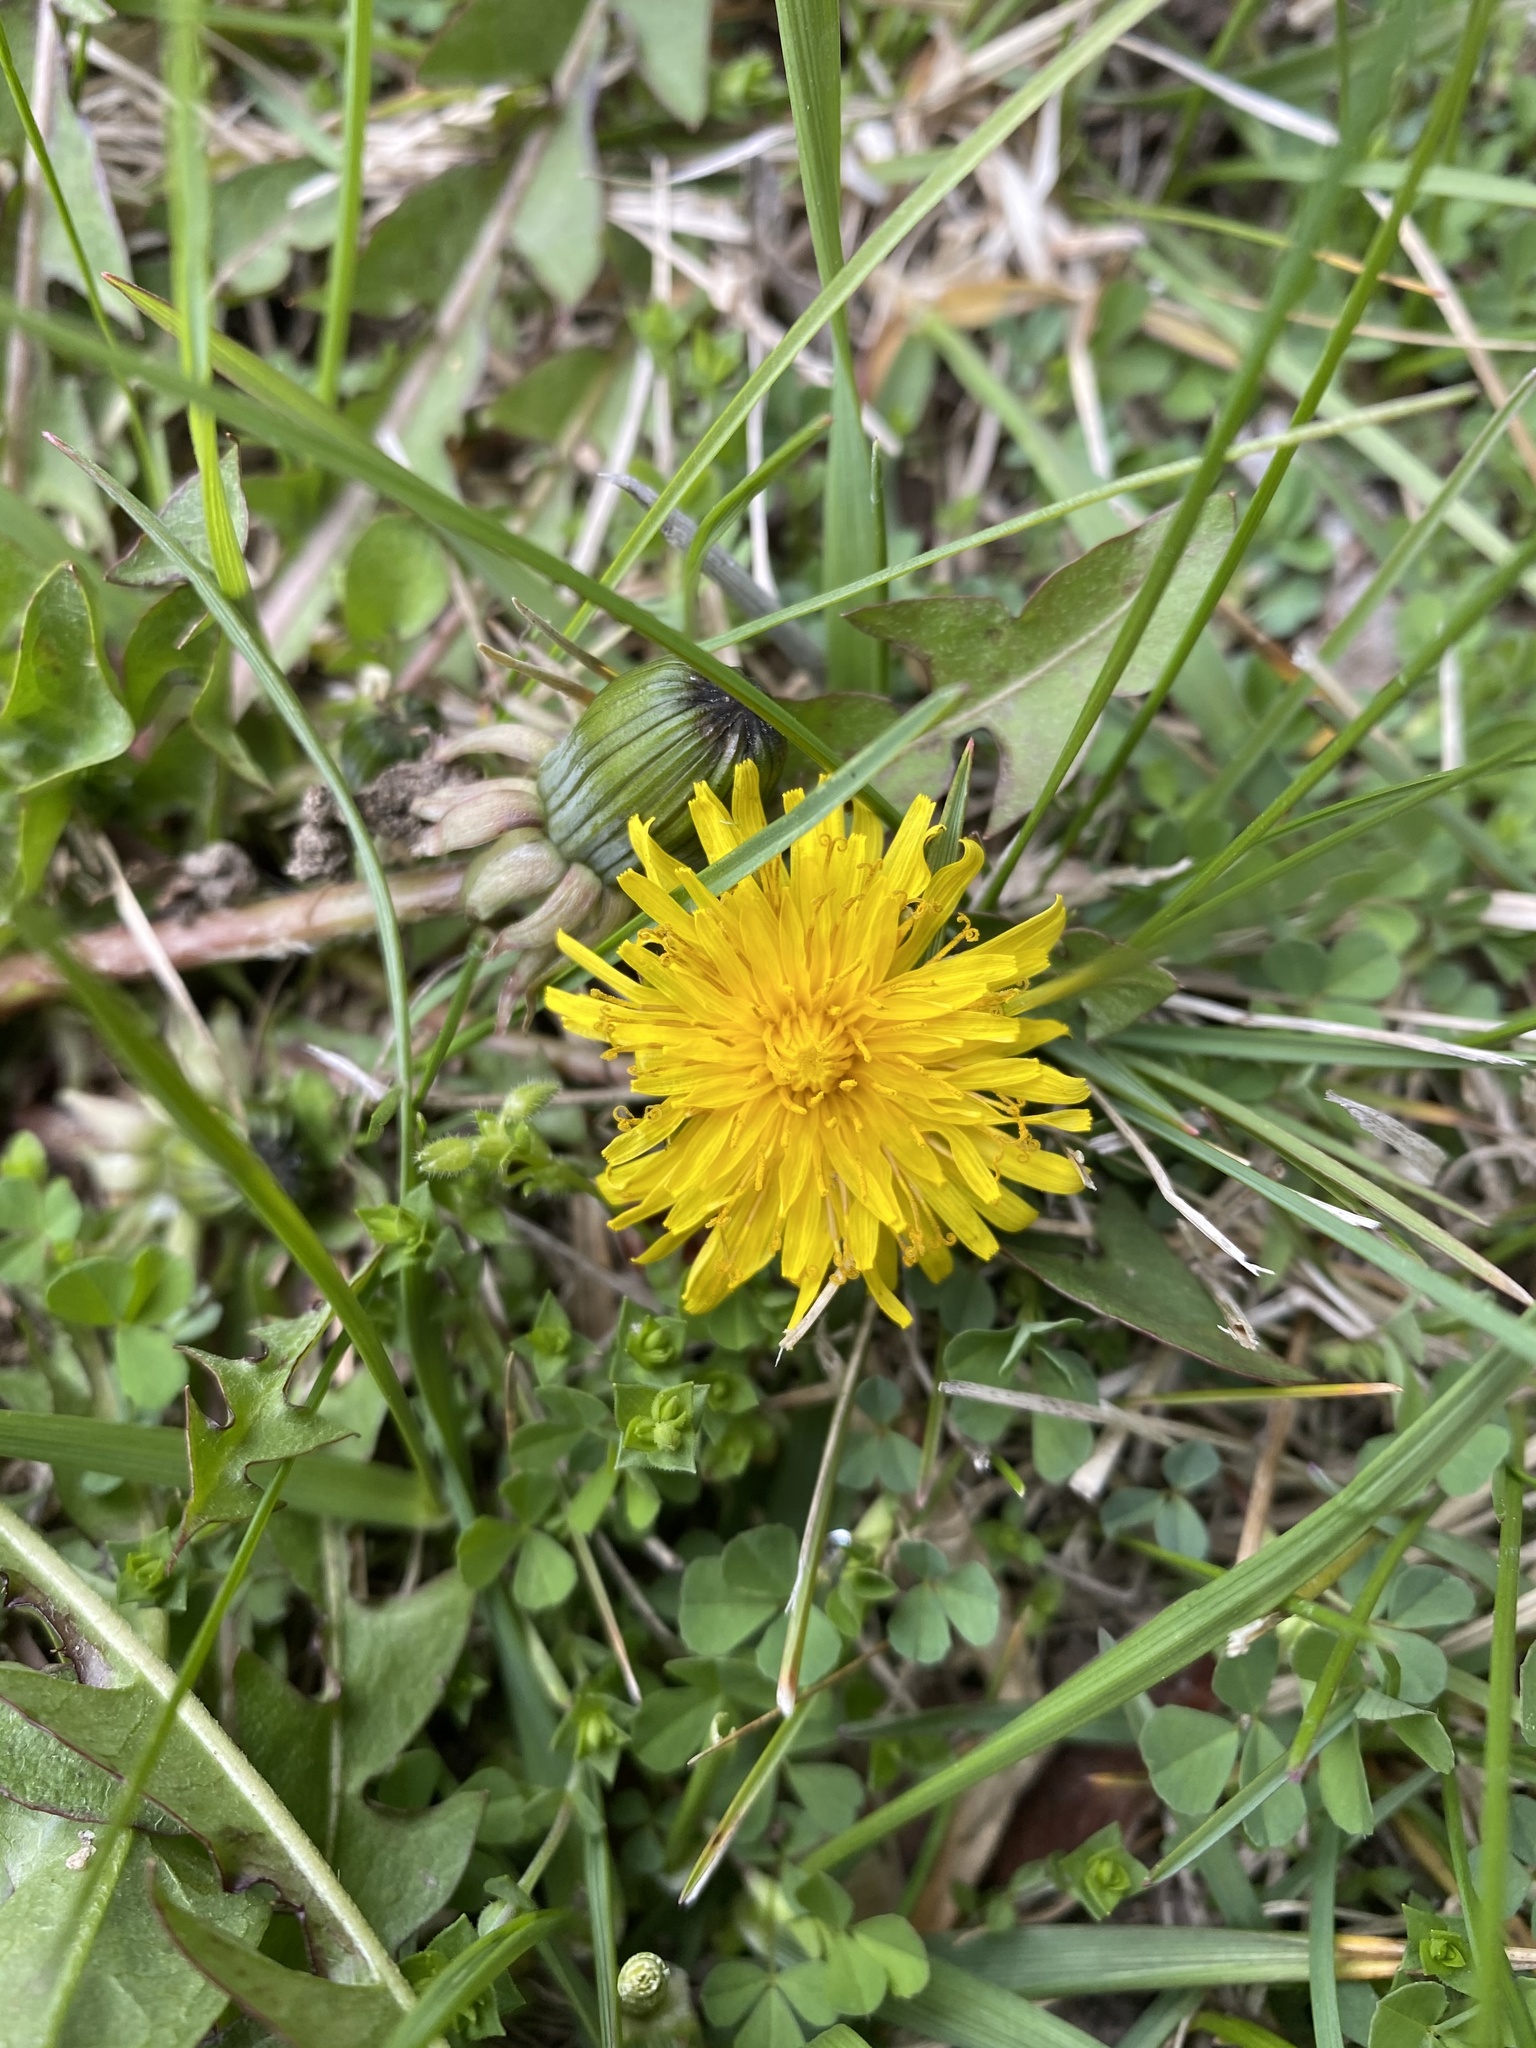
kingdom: Plantae
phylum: Tracheophyta
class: Magnoliopsida
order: Asterales
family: Asteraceae
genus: Taraxacum
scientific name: Taraxacum officinale
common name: Common dandelion
